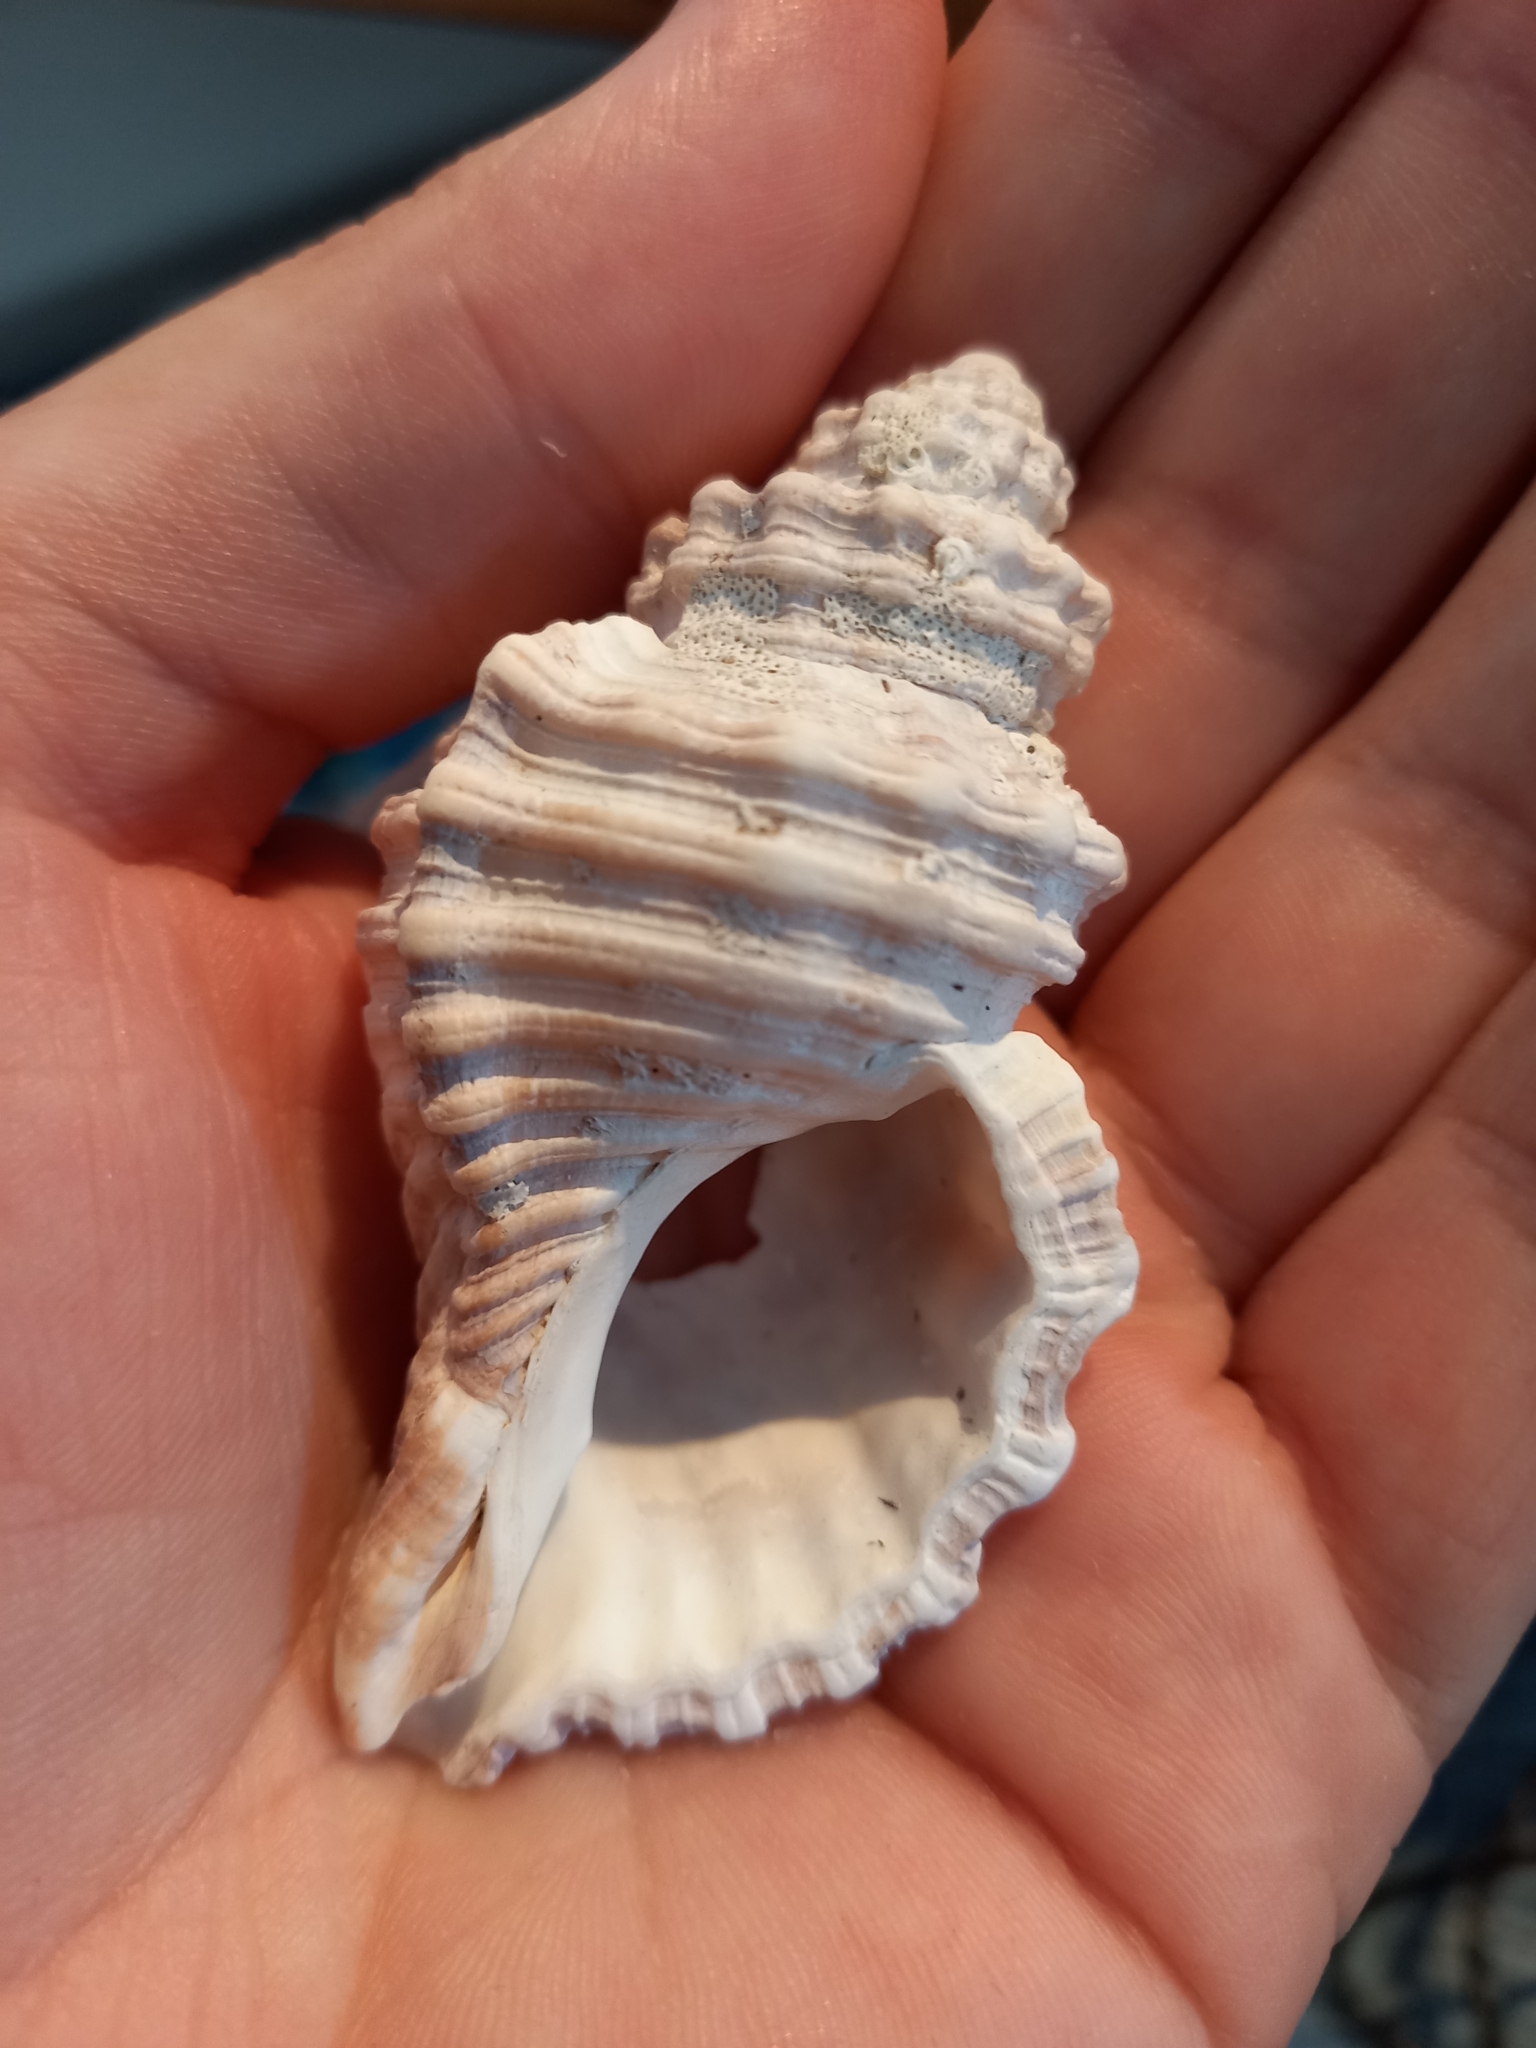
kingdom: Animalia
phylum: Mollusca
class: Gastropoda
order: Littorinimorpha
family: Cymatiidae
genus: Cabestana
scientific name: Cabestana tabulata
